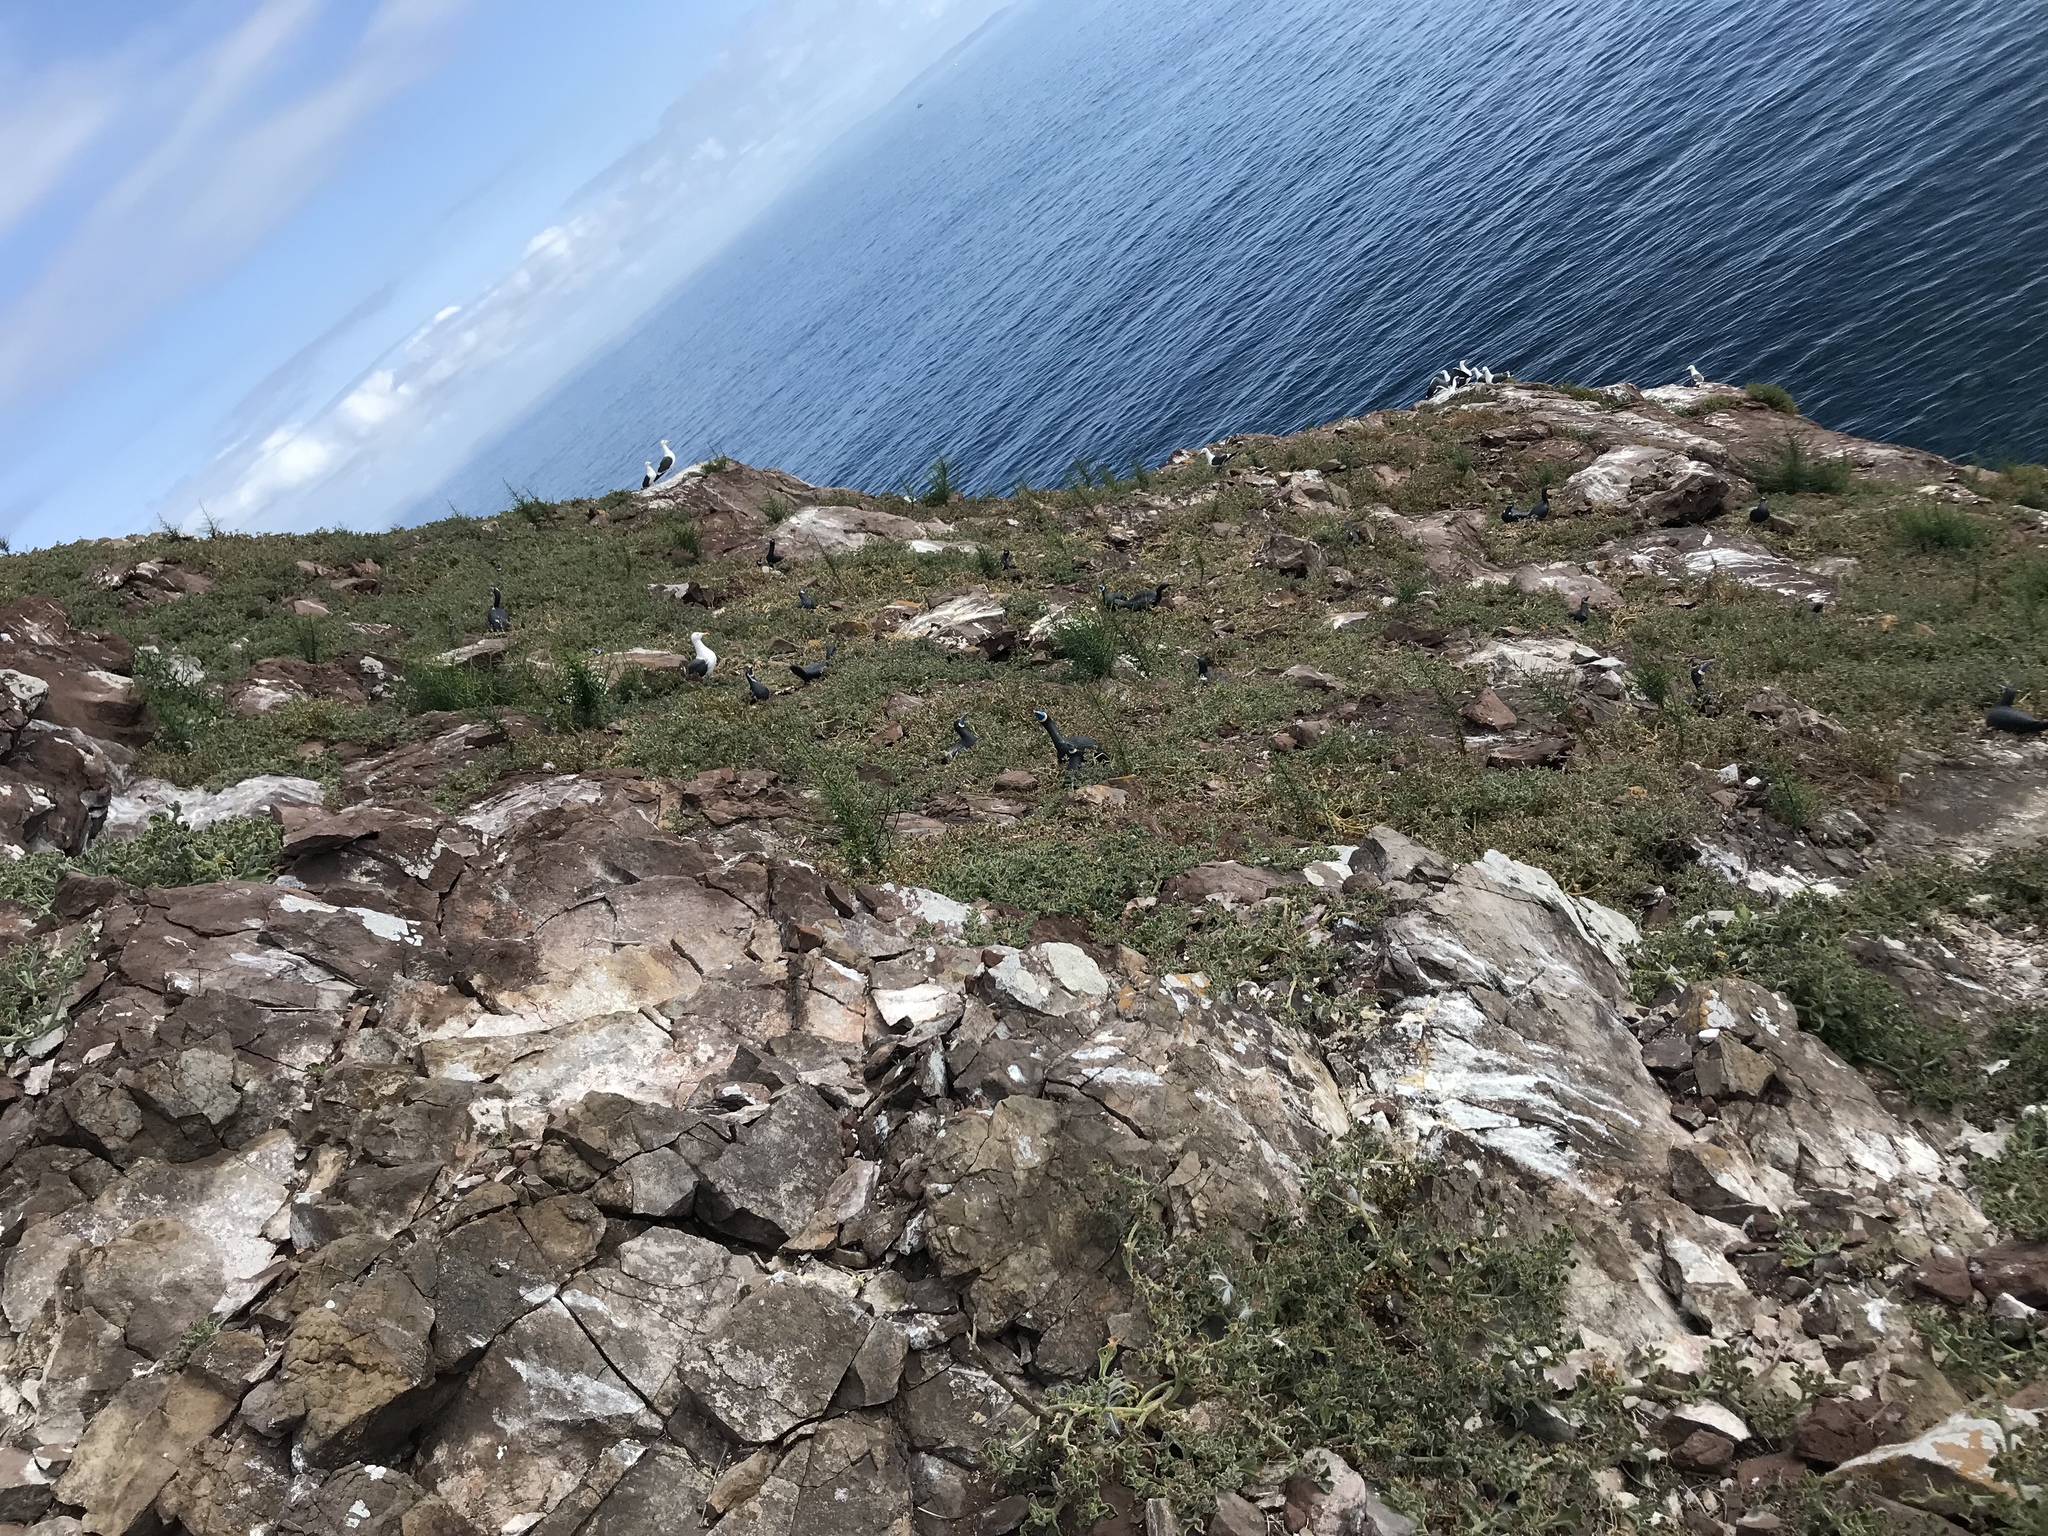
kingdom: Animalia
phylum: Chordata
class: Aves
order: Pelecaniformes
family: Pelecanidae
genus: Pelecanus
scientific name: Pelecanus occidentalis
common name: Brown pelican
